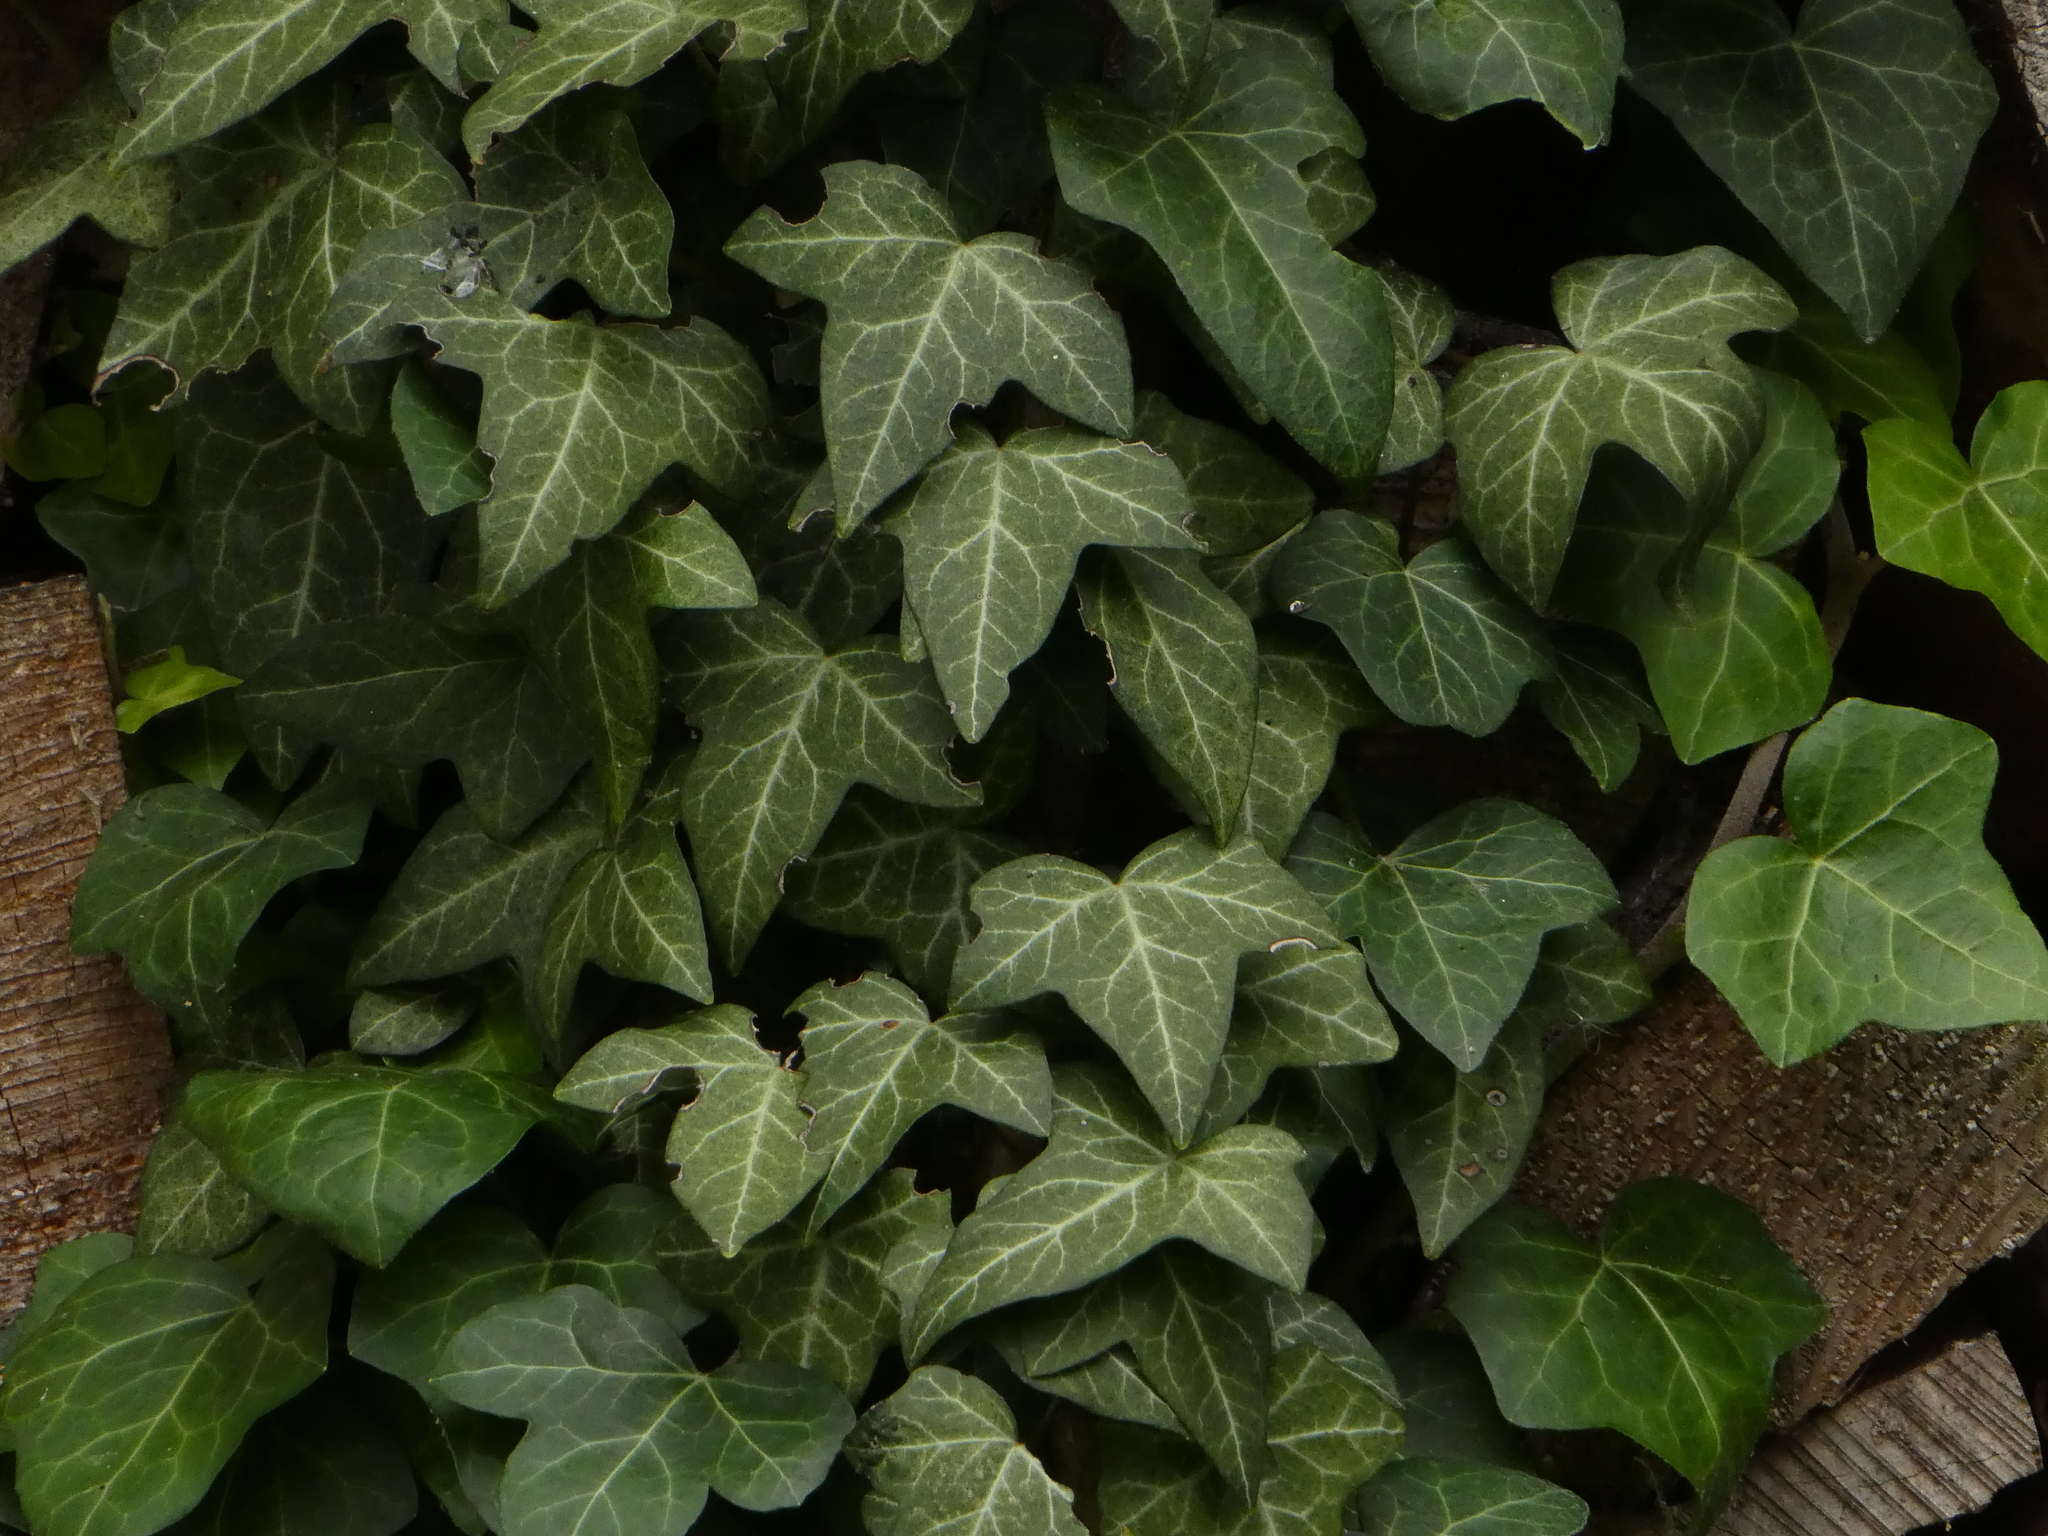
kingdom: Plantae
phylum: Tracheophyta
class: Magnoliopsida
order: Apiales
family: Araliaceae
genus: Hedera
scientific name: Hedera helix
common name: Ivy
